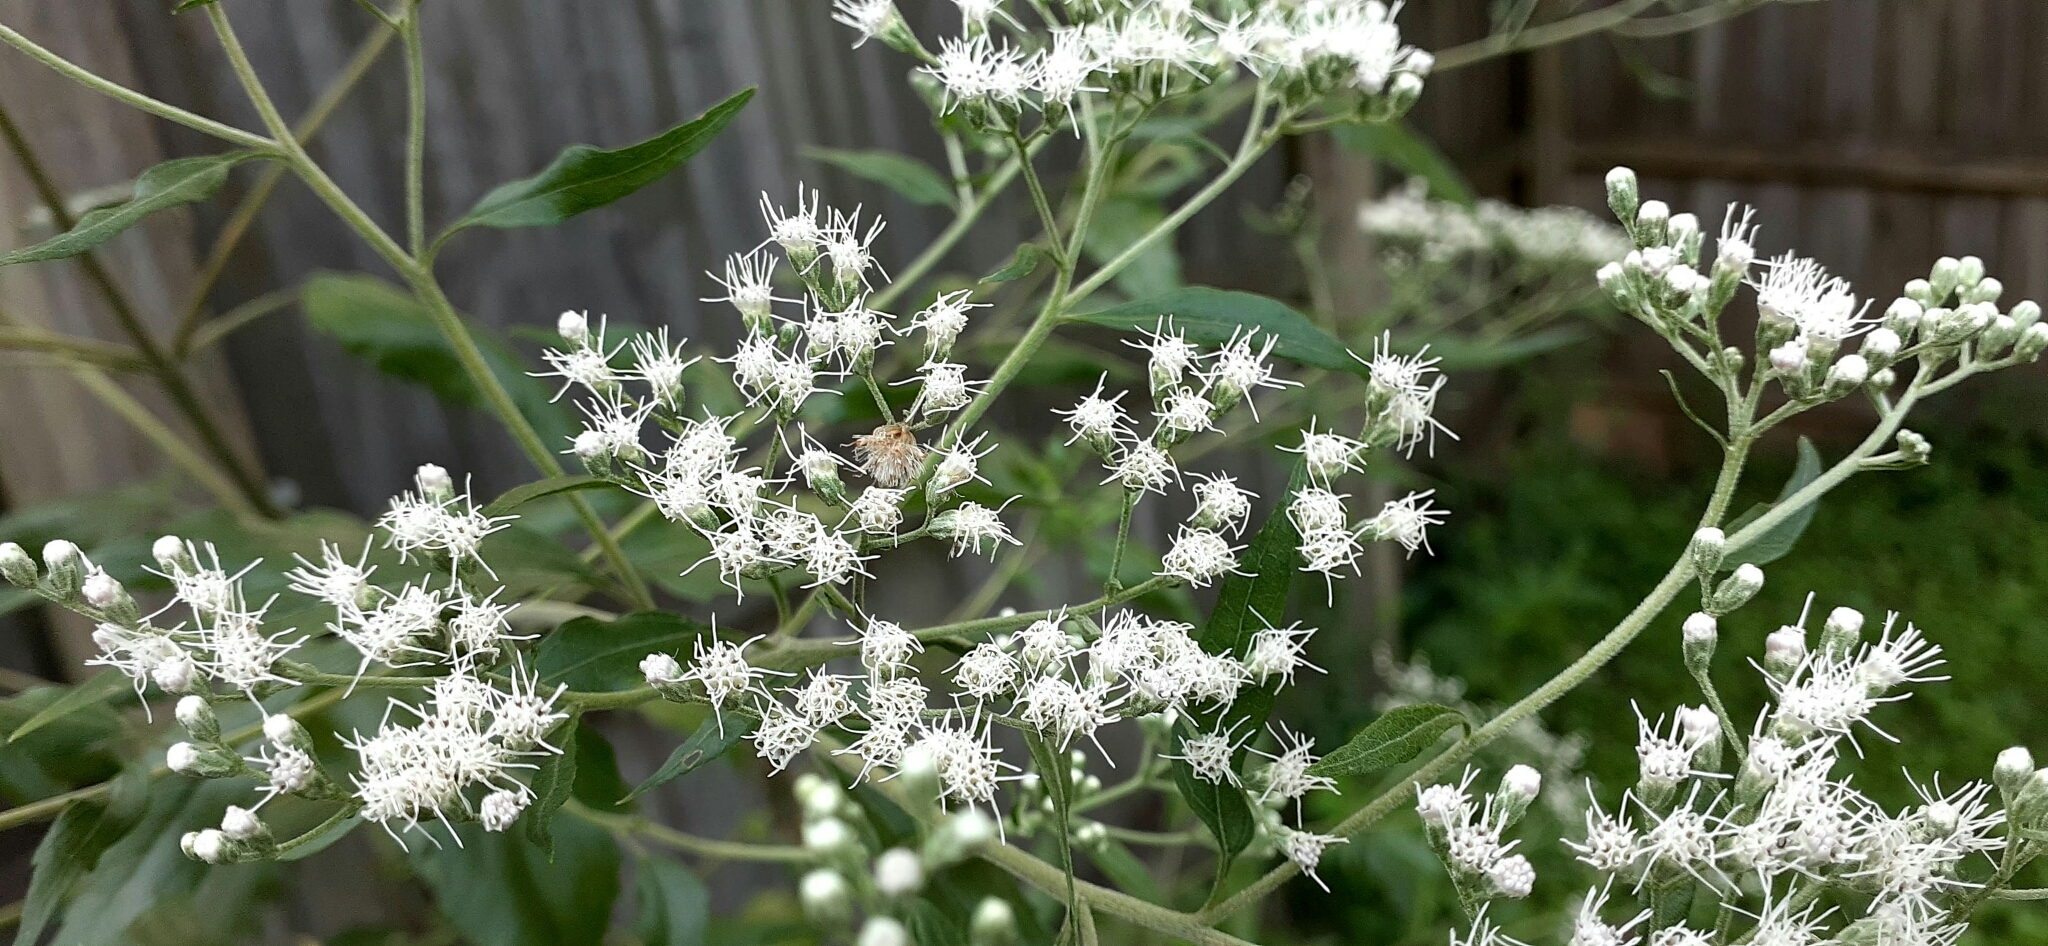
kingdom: Plantae
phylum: Tracheophyta
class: Magnoliopsida
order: Asterales
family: Asteraceae
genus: Eupatorium
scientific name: Eupatorium serotinum
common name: Late boneset
